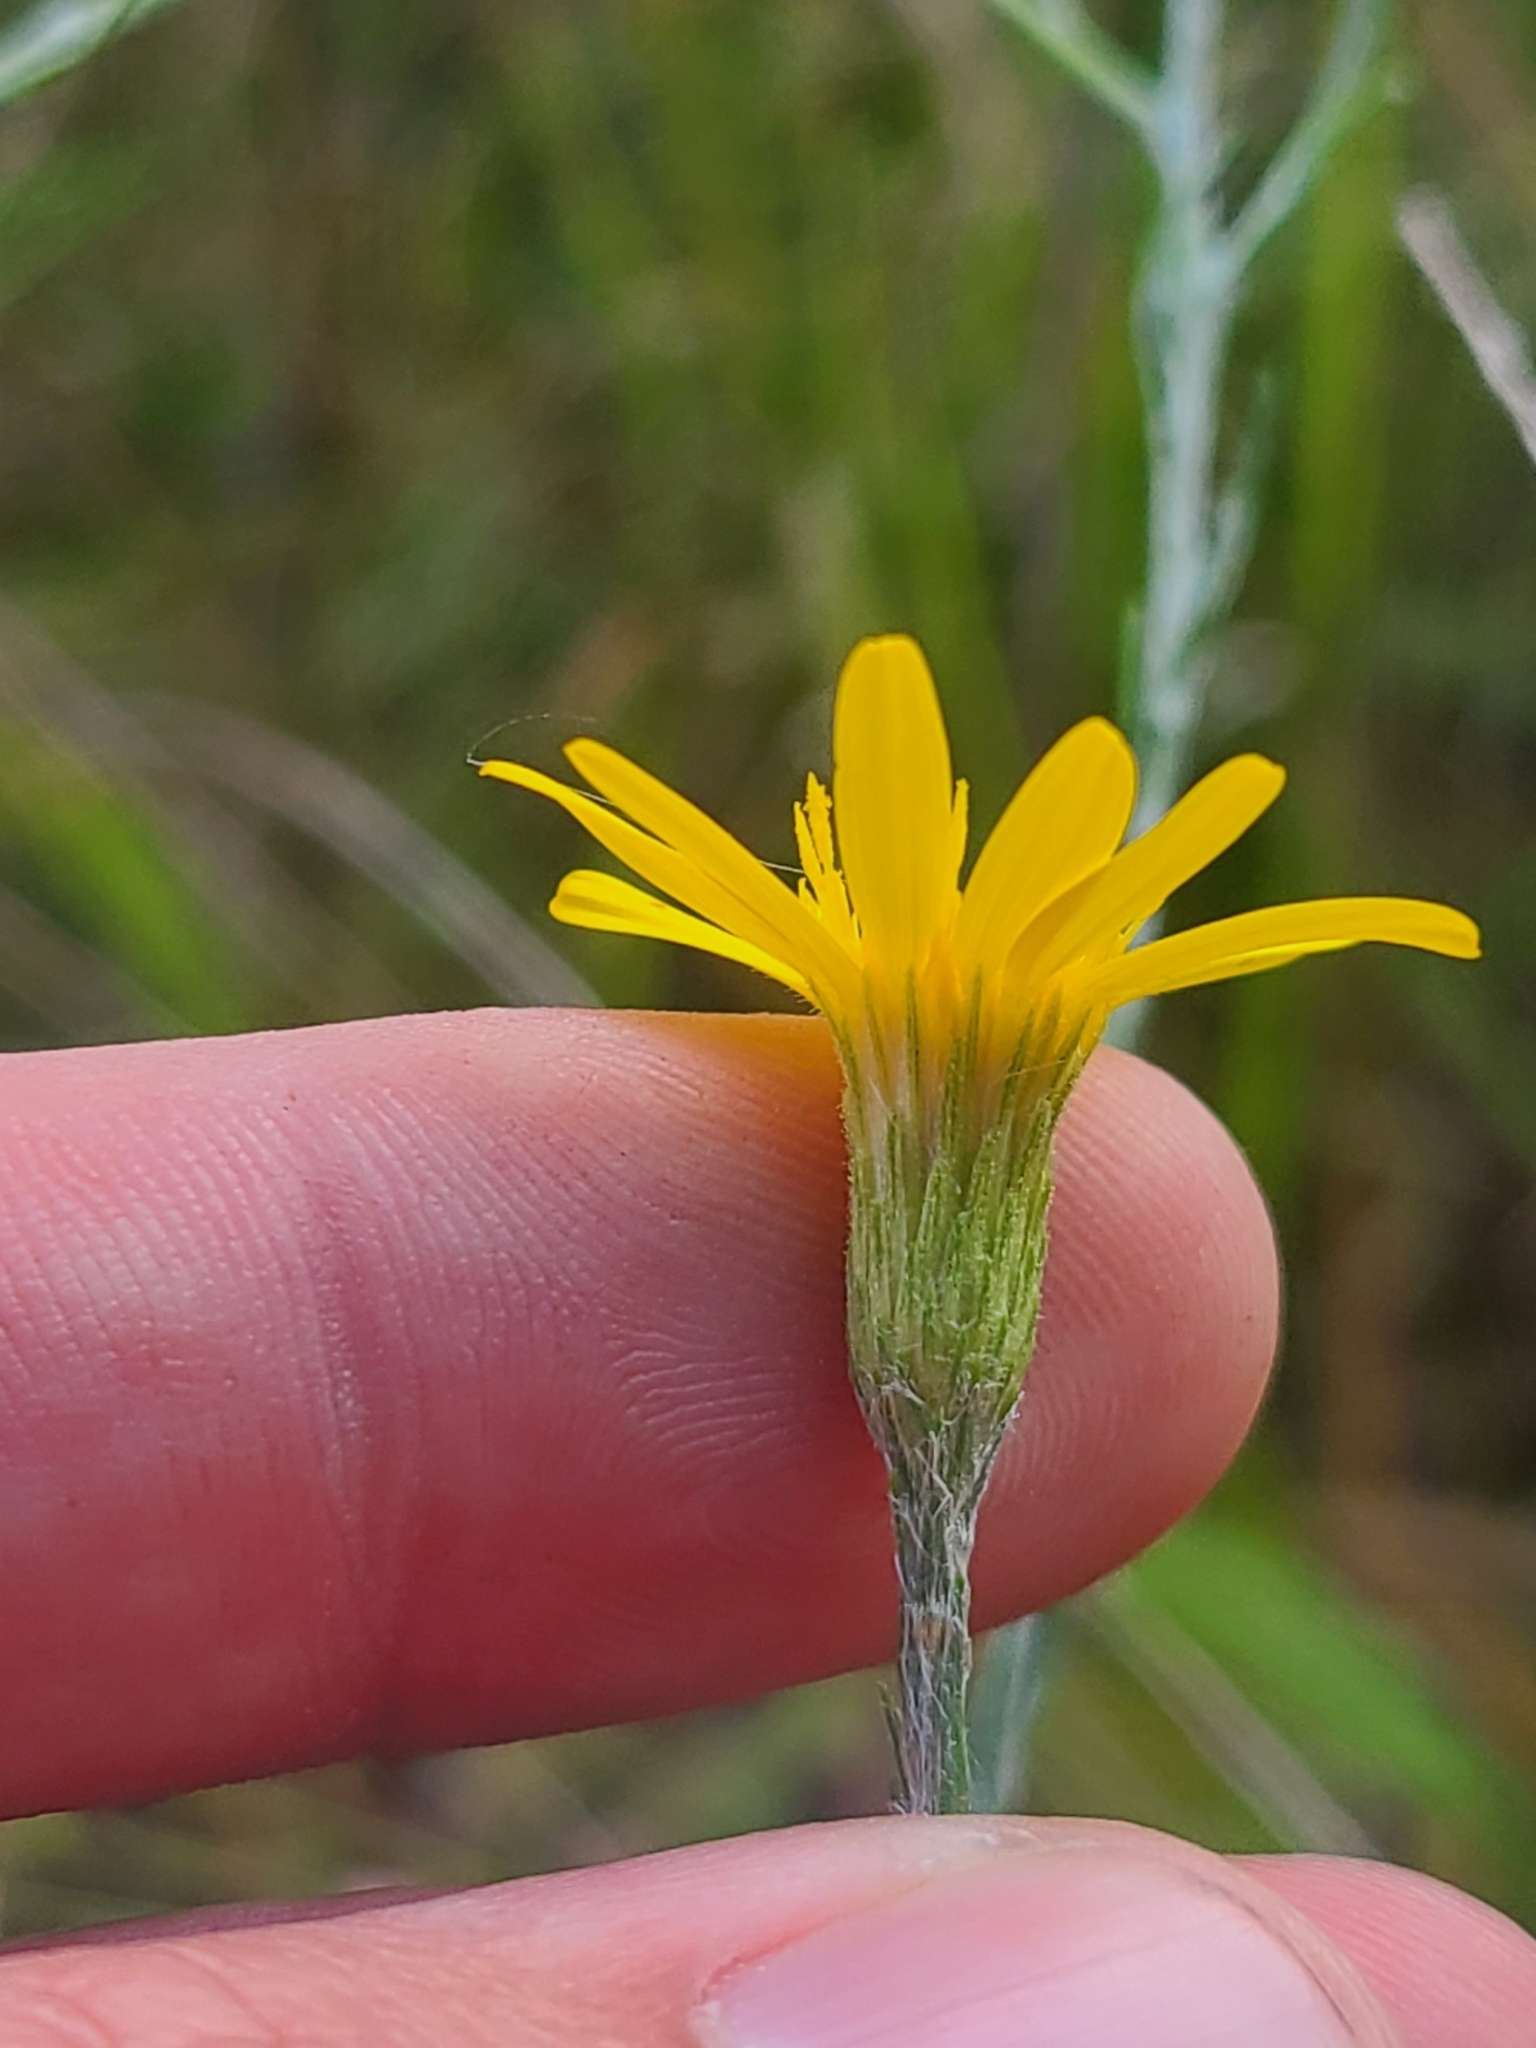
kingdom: Plantae
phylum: Tracheophyta
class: Magnoliopsida
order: Asterales
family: Asteraceae
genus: Pityopsis
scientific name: Pityopsis graminifolia
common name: Grass-leaf golden-aster
